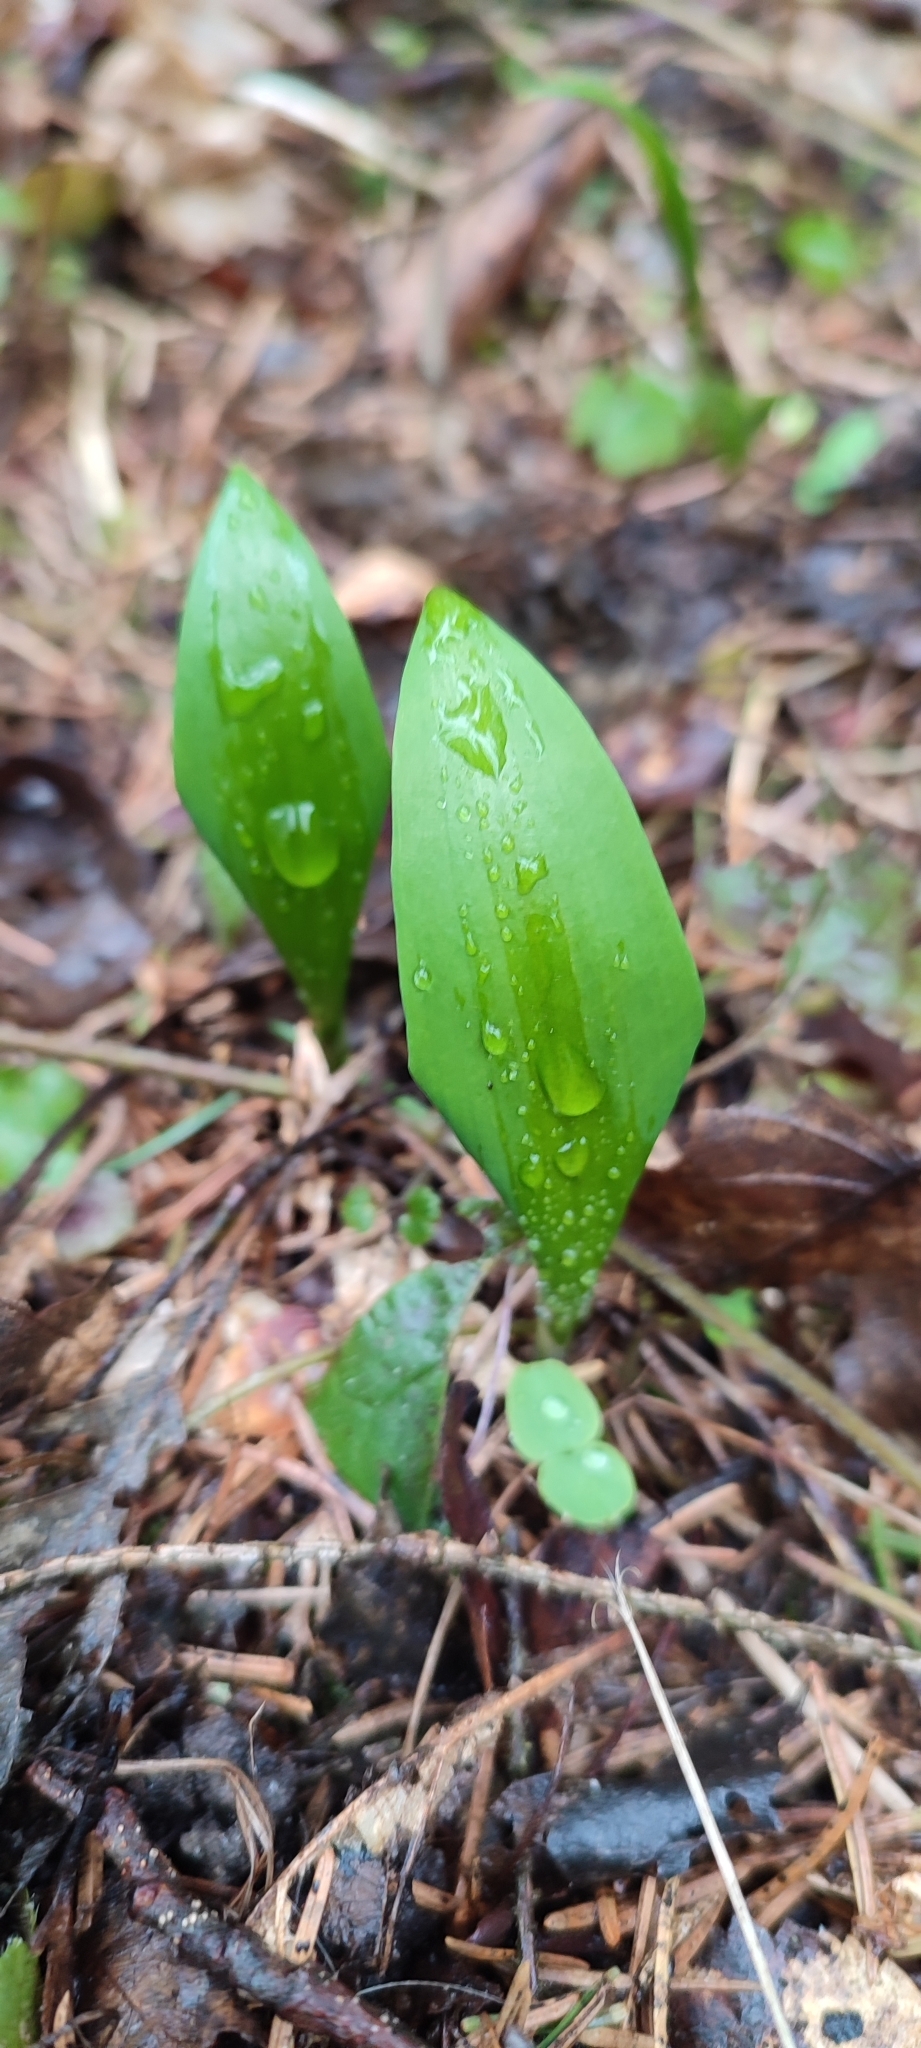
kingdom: Plantae
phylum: Tracheophyta
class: Liliopsida
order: Asparagales
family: Amaryllidaceae
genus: Allium
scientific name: Allium ursinum
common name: Ramsons
